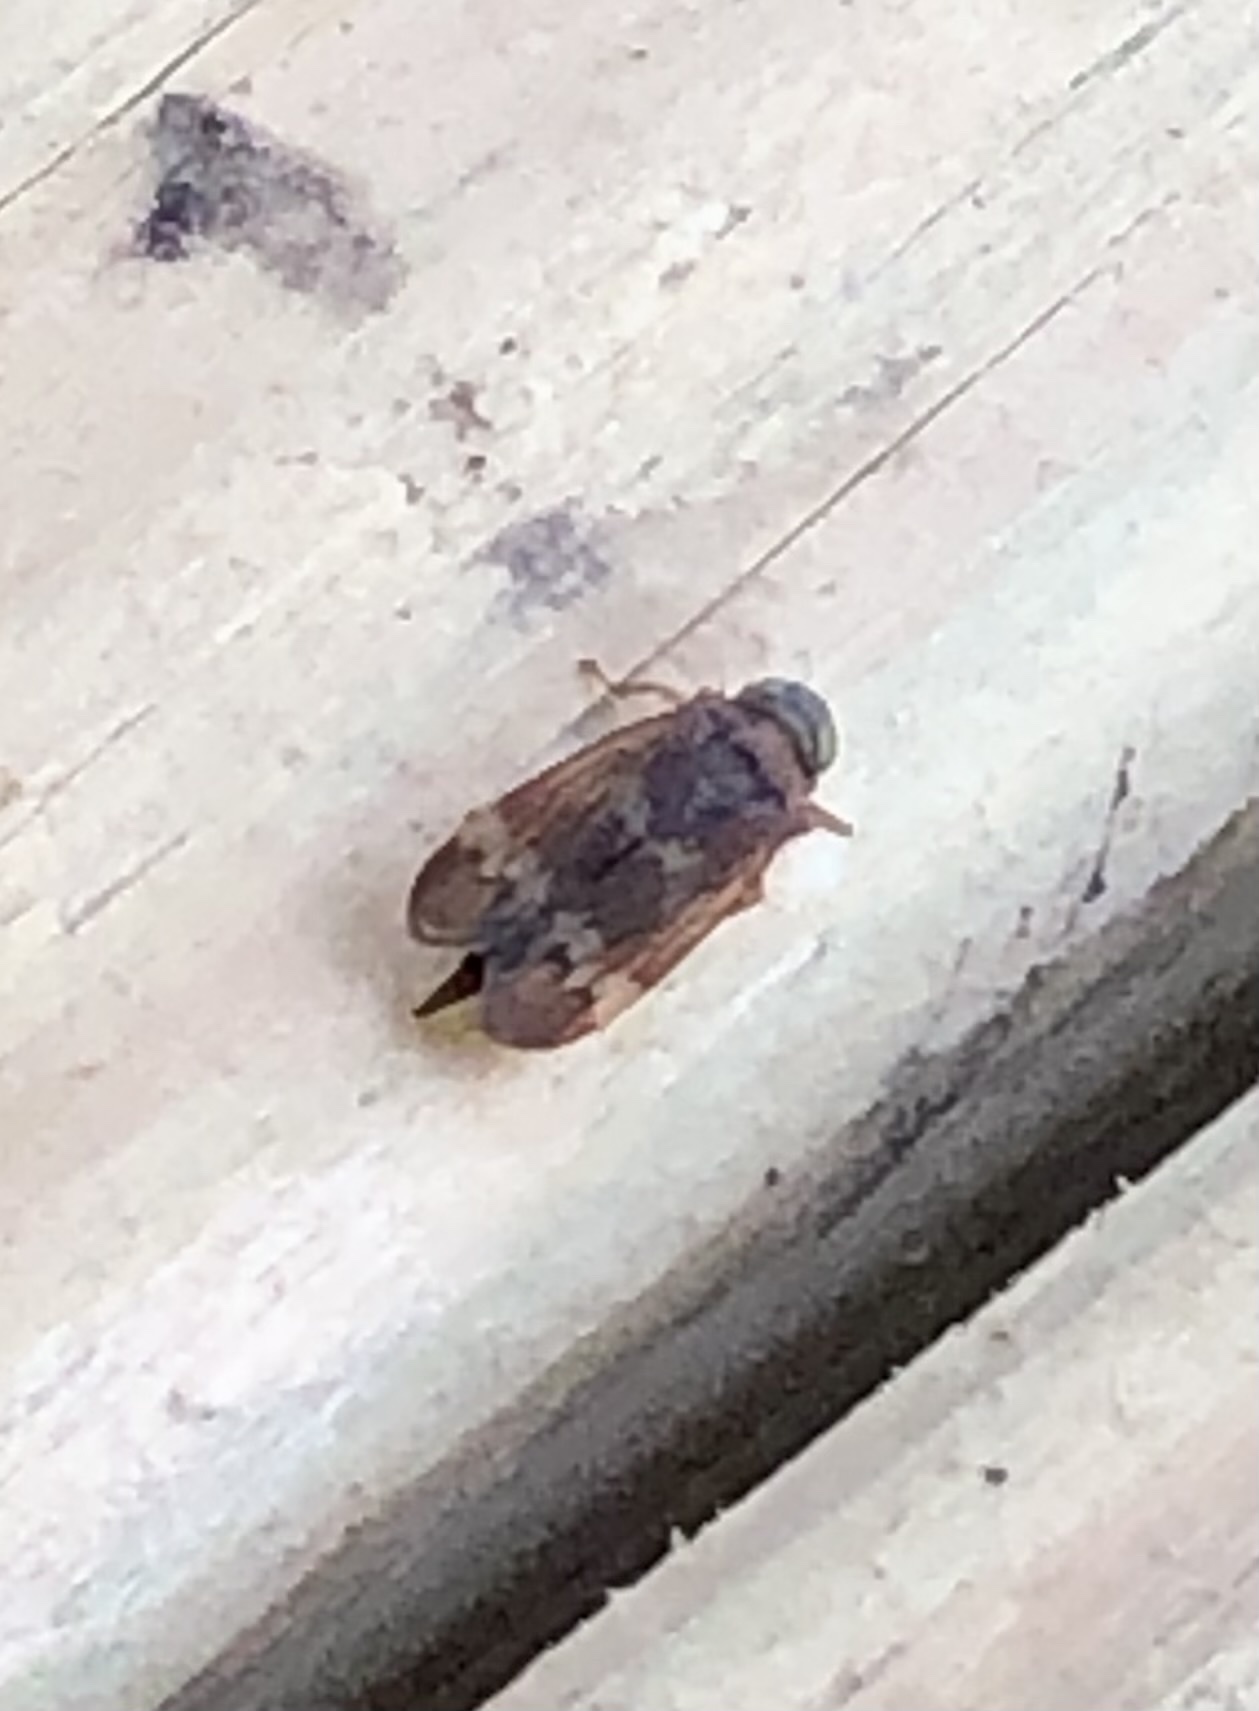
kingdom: Animalia
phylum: Arthropoda
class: Insecta
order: Hemiptera
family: Cicadellidae
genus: Jikradia
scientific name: Jikradia olitoria
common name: Coppery leafhopper
